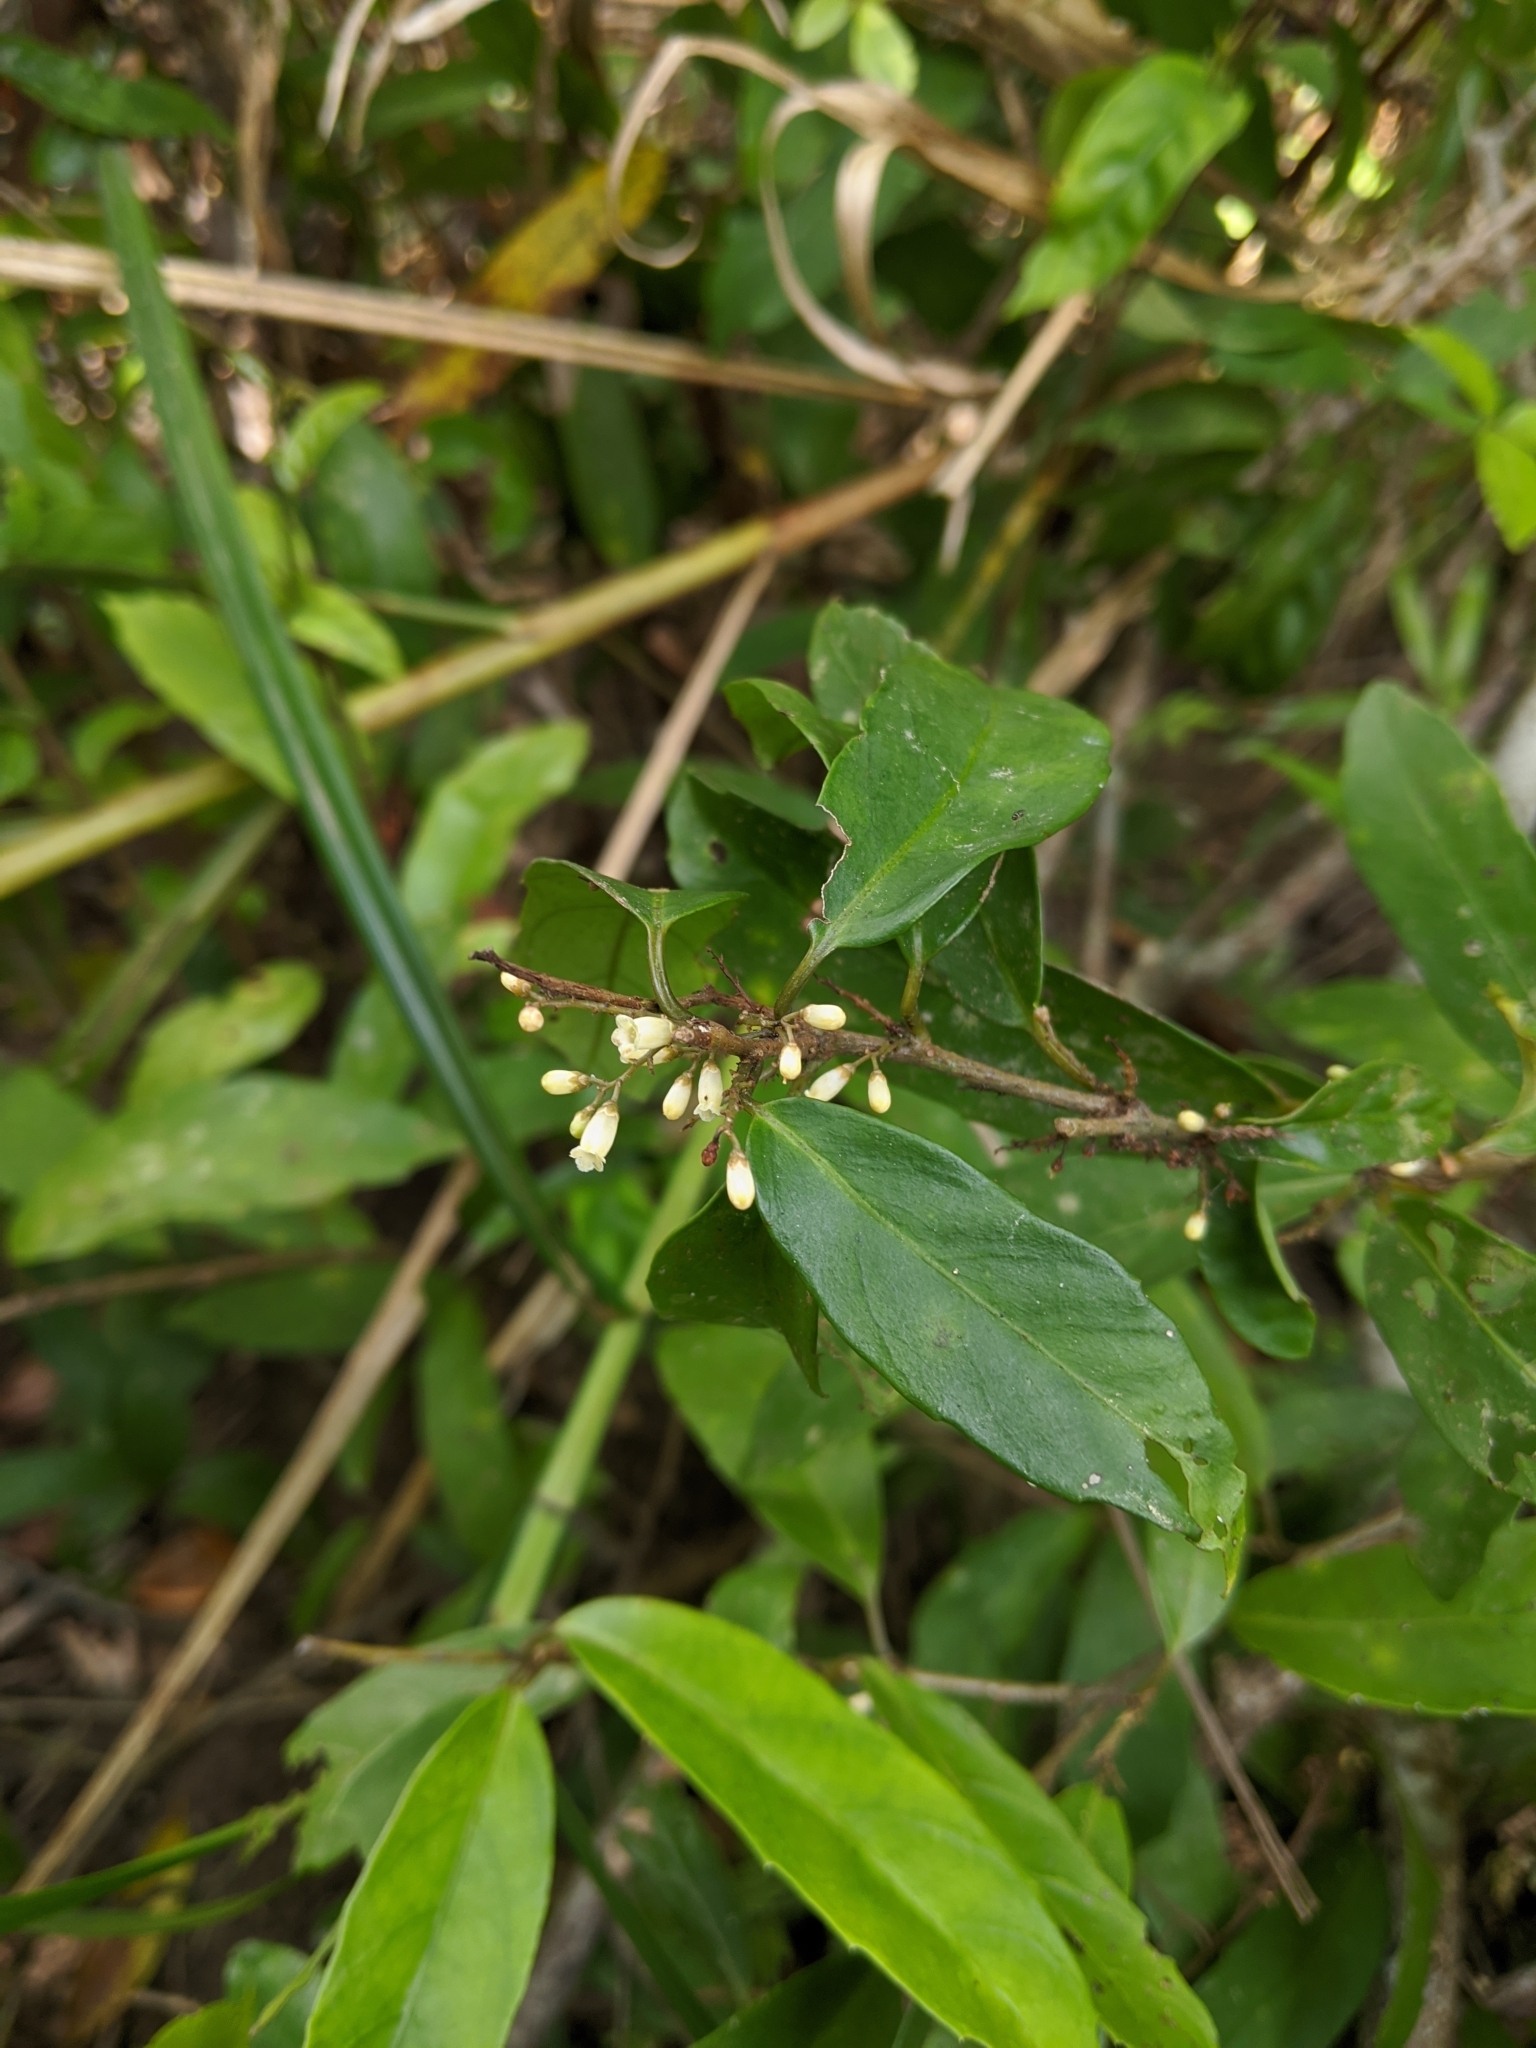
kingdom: Plantae
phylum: Tracheophyta
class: Magnoliopsida
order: Ericales
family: Primulaceae
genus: Maesa
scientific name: Maesa japonica
